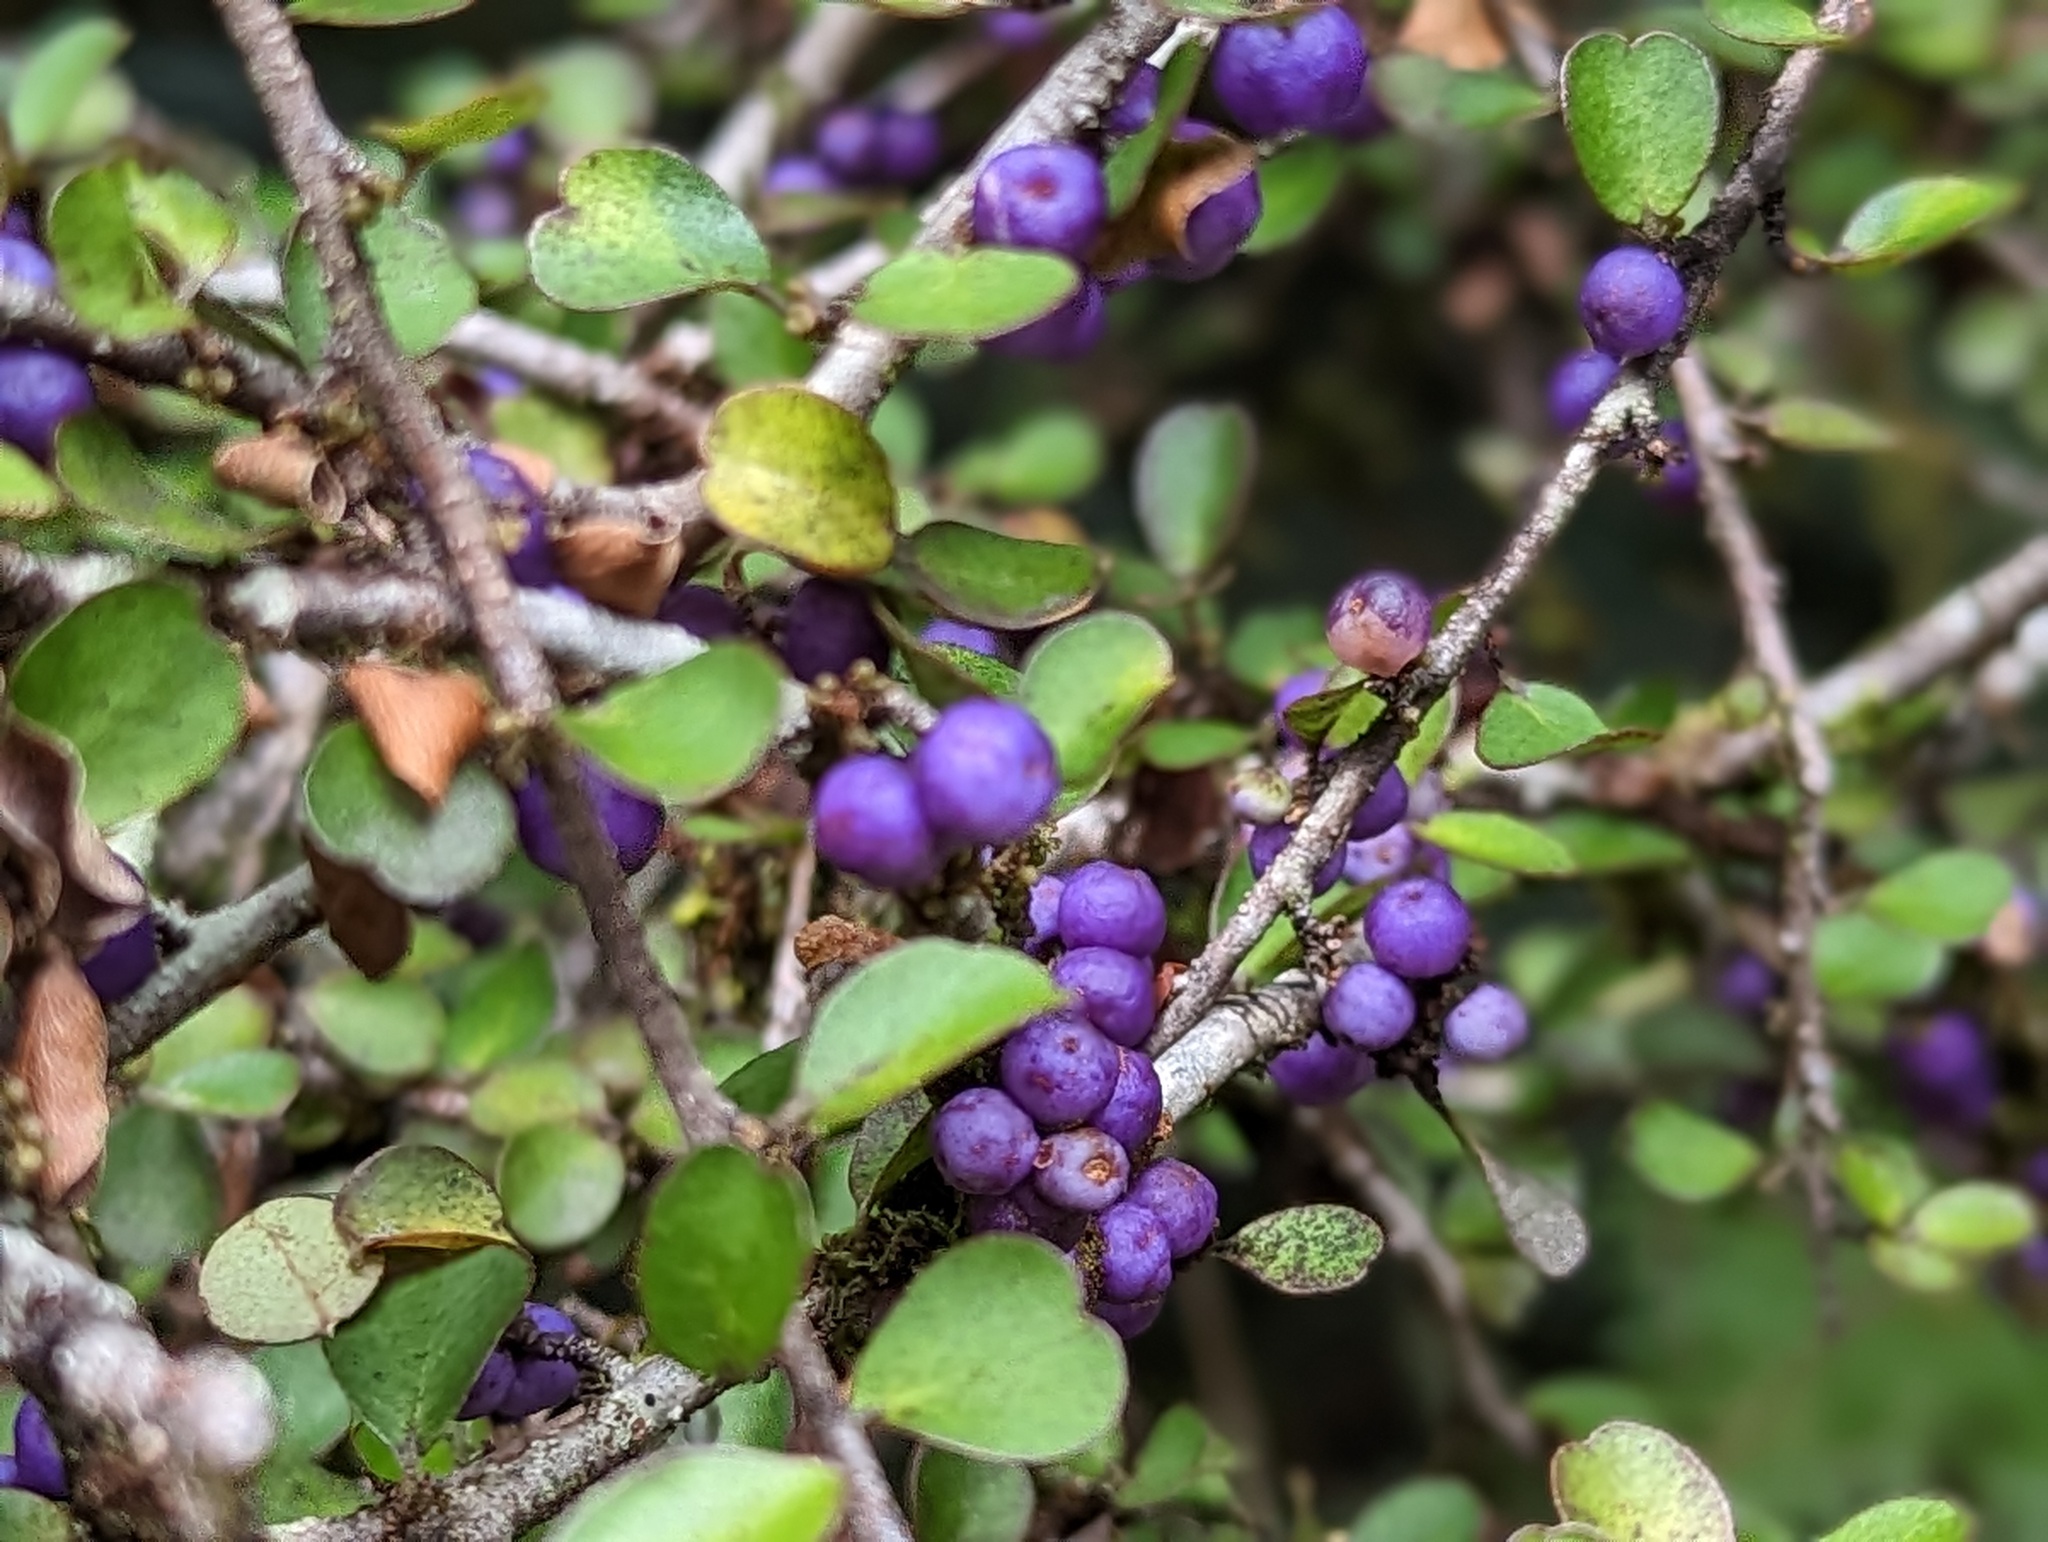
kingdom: Plantae
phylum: Tracheophyta
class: Magnoliopsida
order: Ericales
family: Primulaceae
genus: Myrsine
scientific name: Myrsine divaricata
